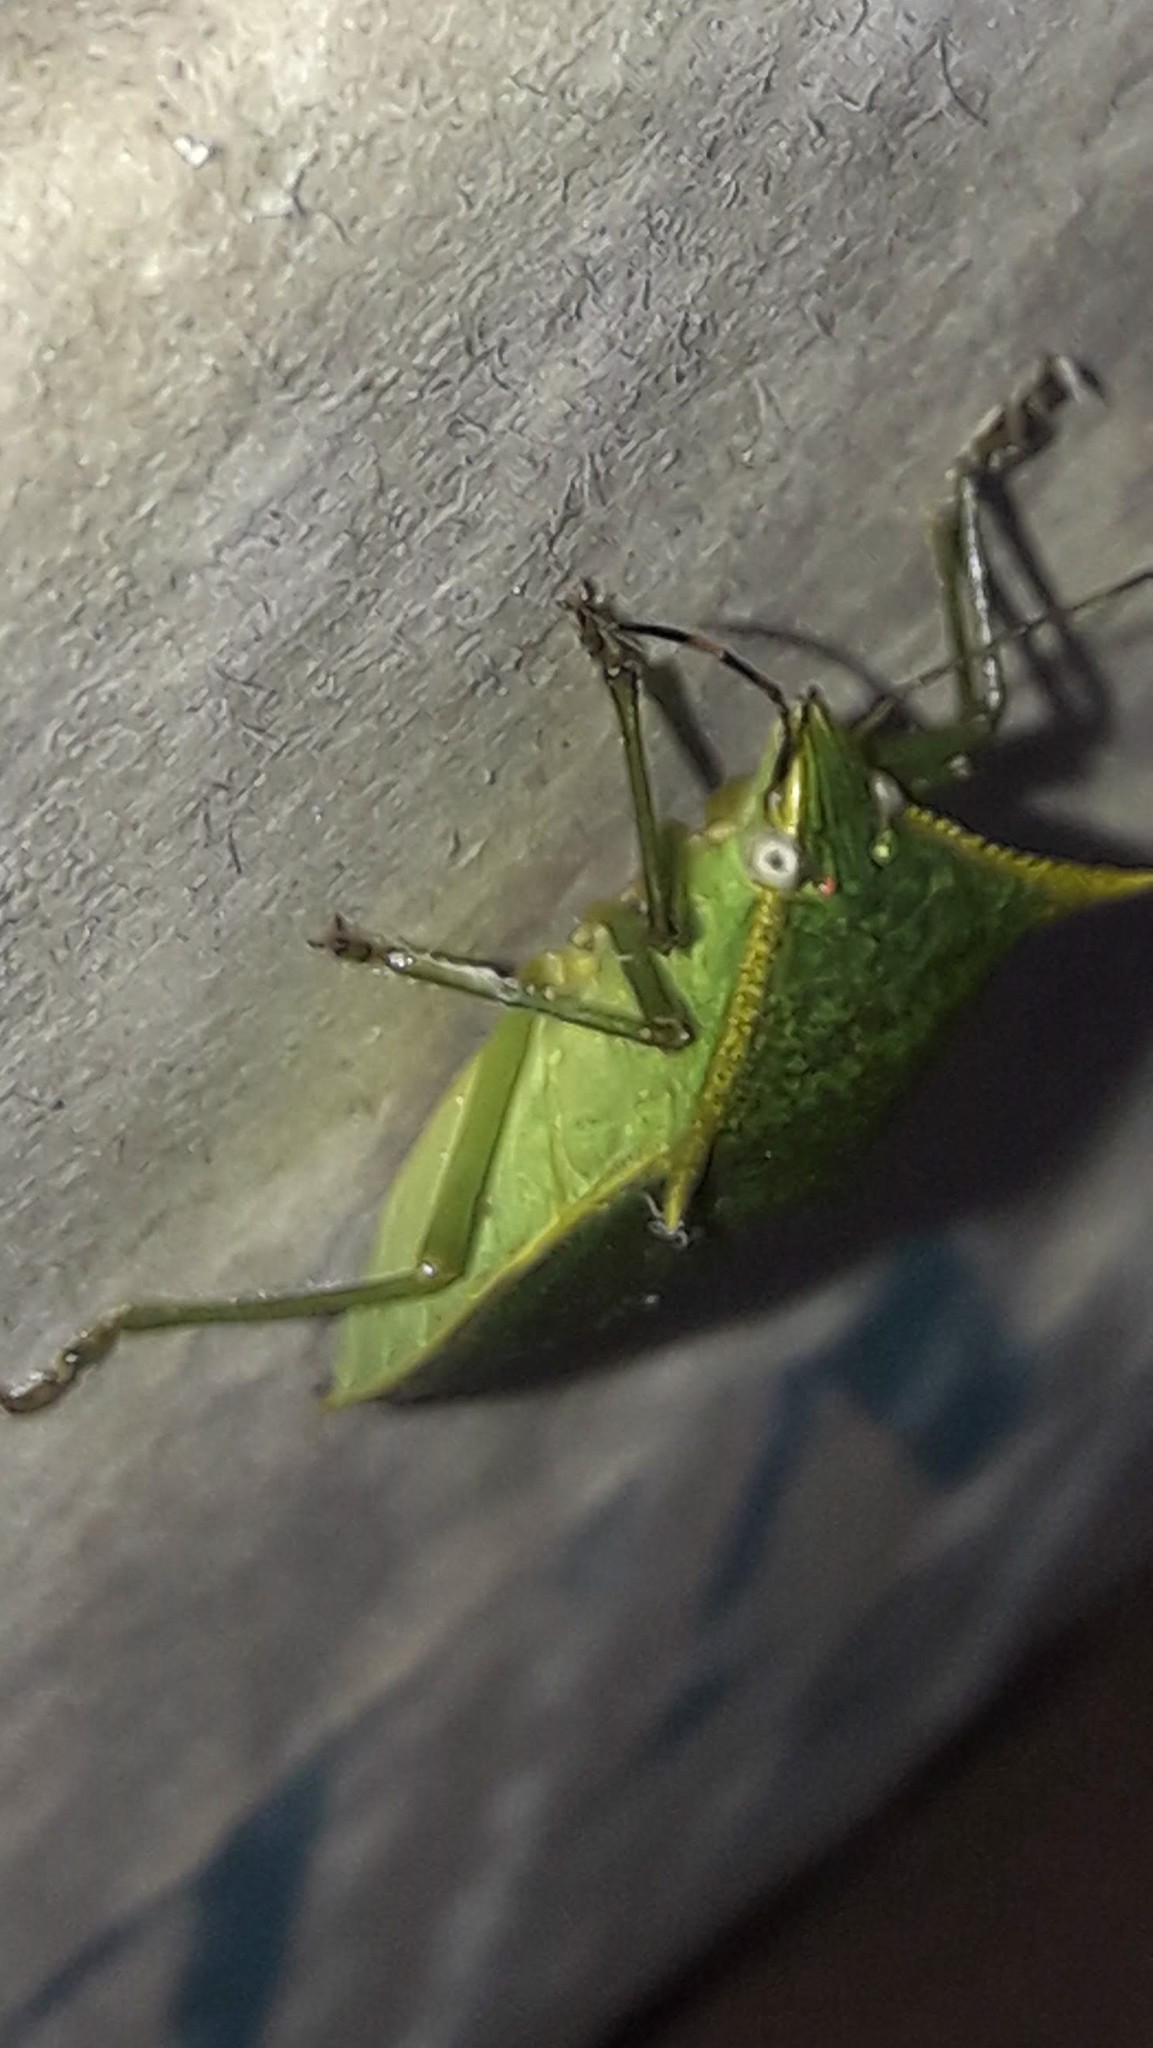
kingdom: Animalia
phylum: Arthropoda
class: Insecta
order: Hemiptera
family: Pentatomidae
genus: Loxa
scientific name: Loxa viridis
